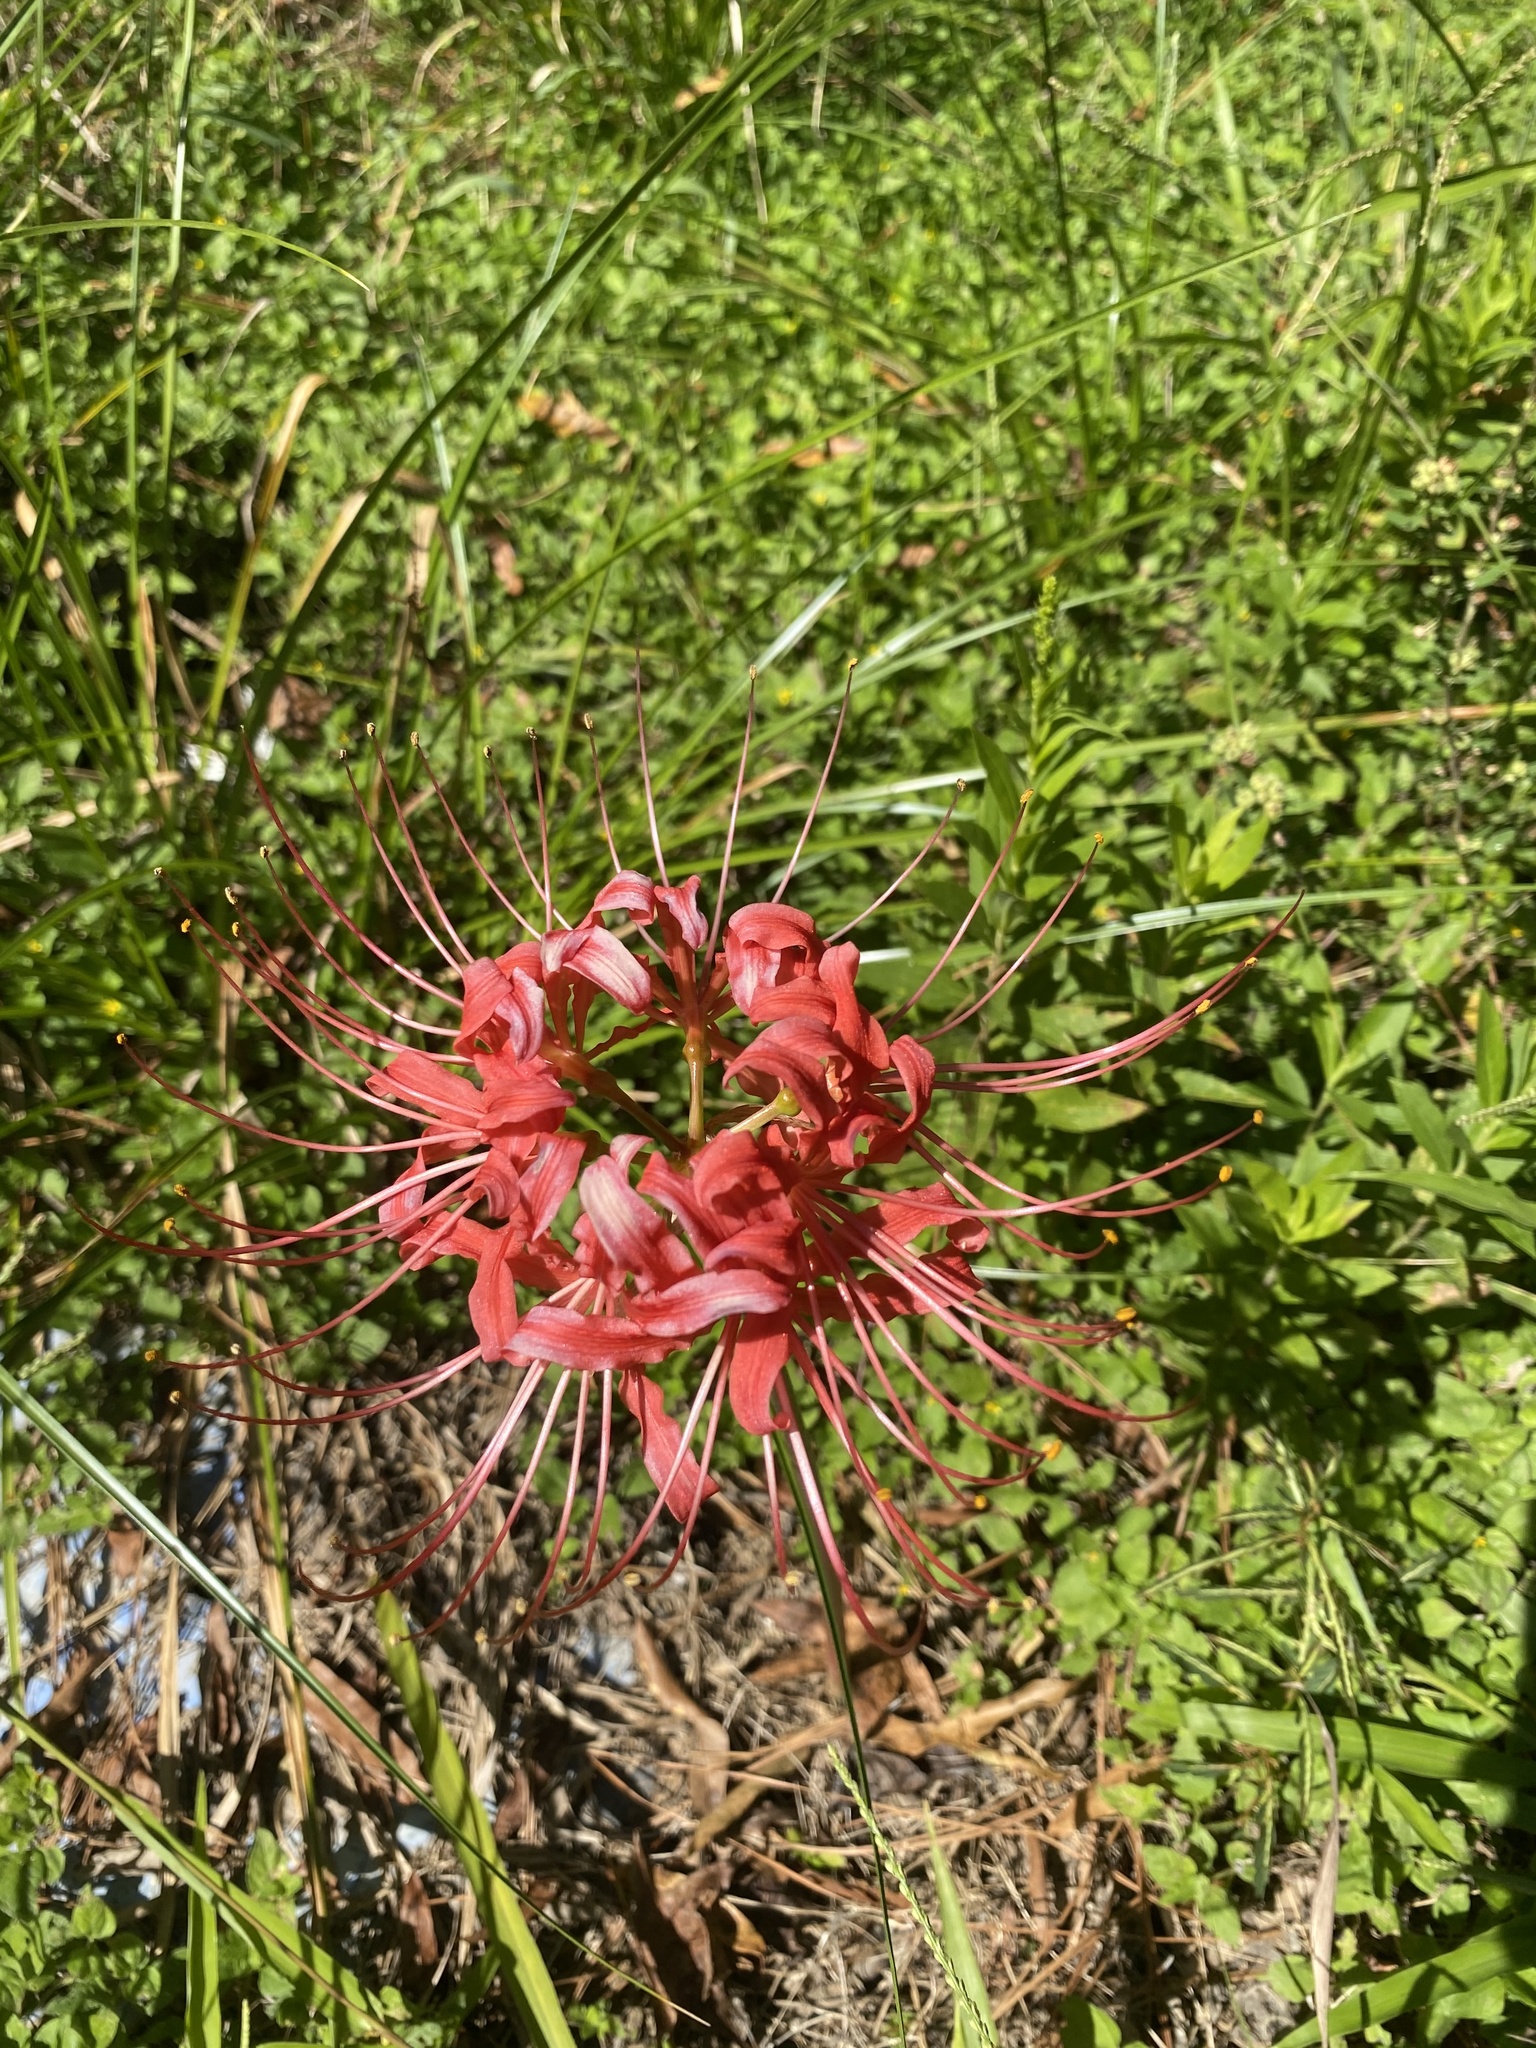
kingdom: Plantae
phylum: Tracheophyta
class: Liliopsida
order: Asparagales
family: Amaryllidaceae
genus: Lycoris
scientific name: Lycoris radiata
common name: Red spider lily
